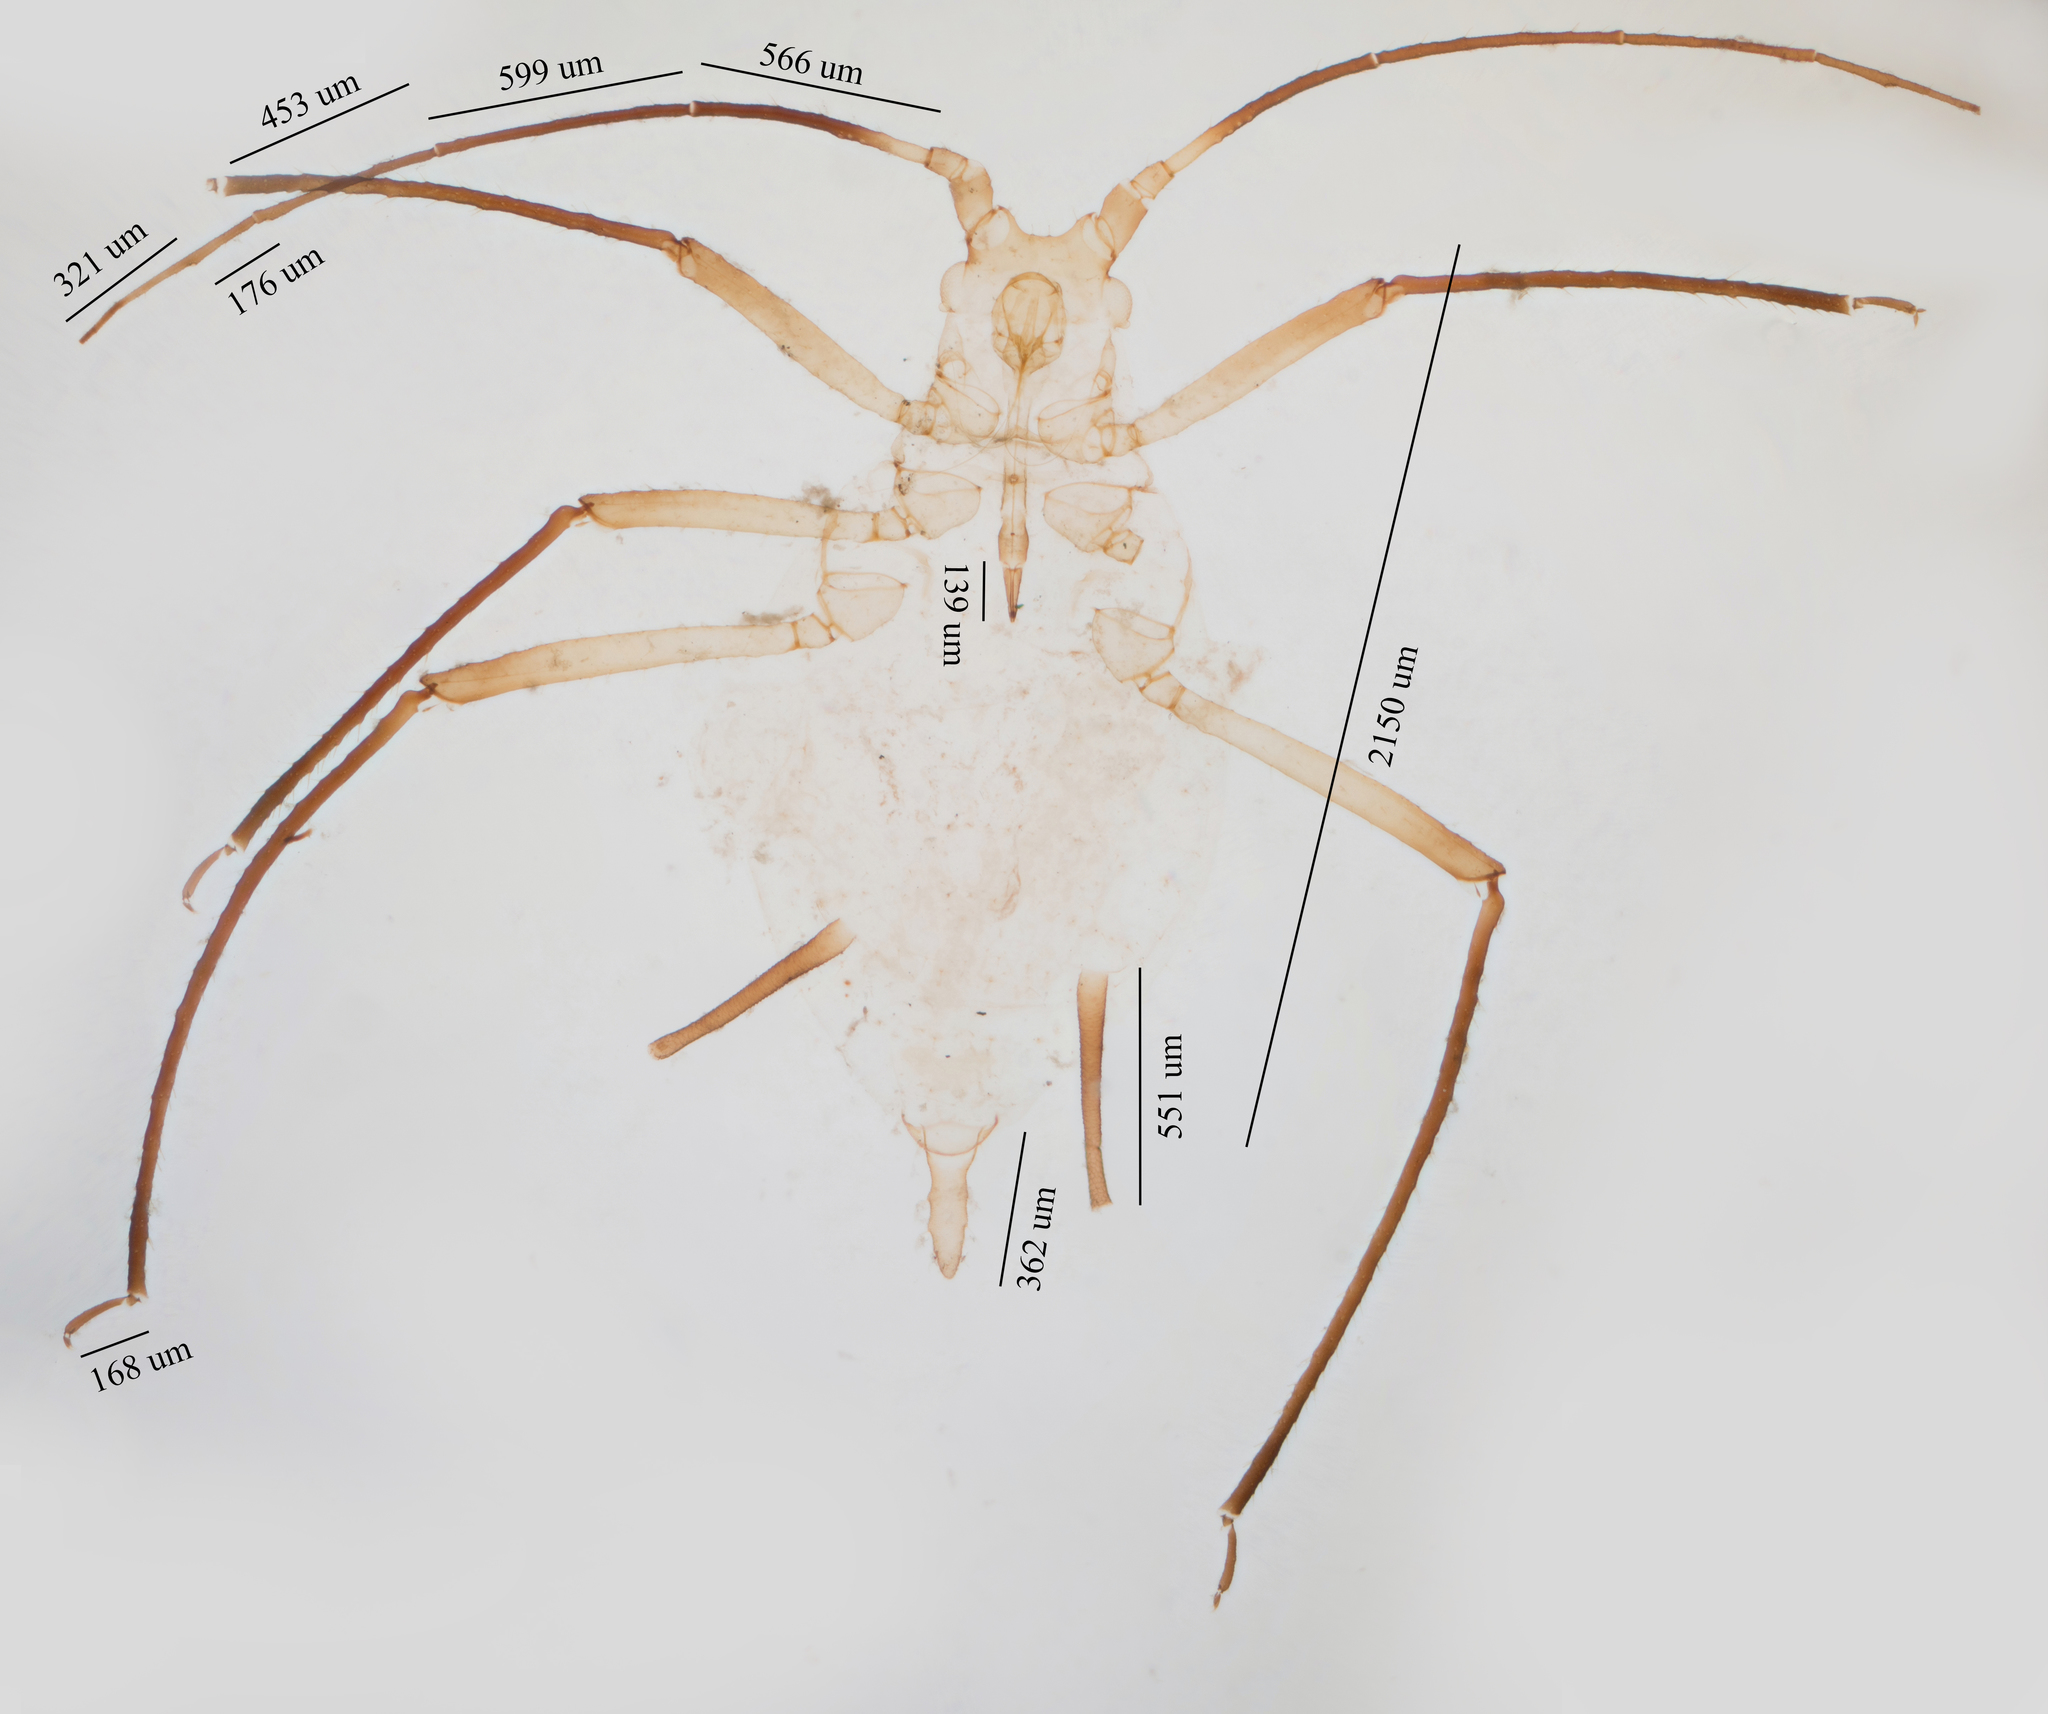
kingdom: Animalia
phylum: Arthropoda
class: Insecta
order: Hemiptera
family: Aphididae
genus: Macrosiphoniella
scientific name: Macrosiphoniella glabrum
